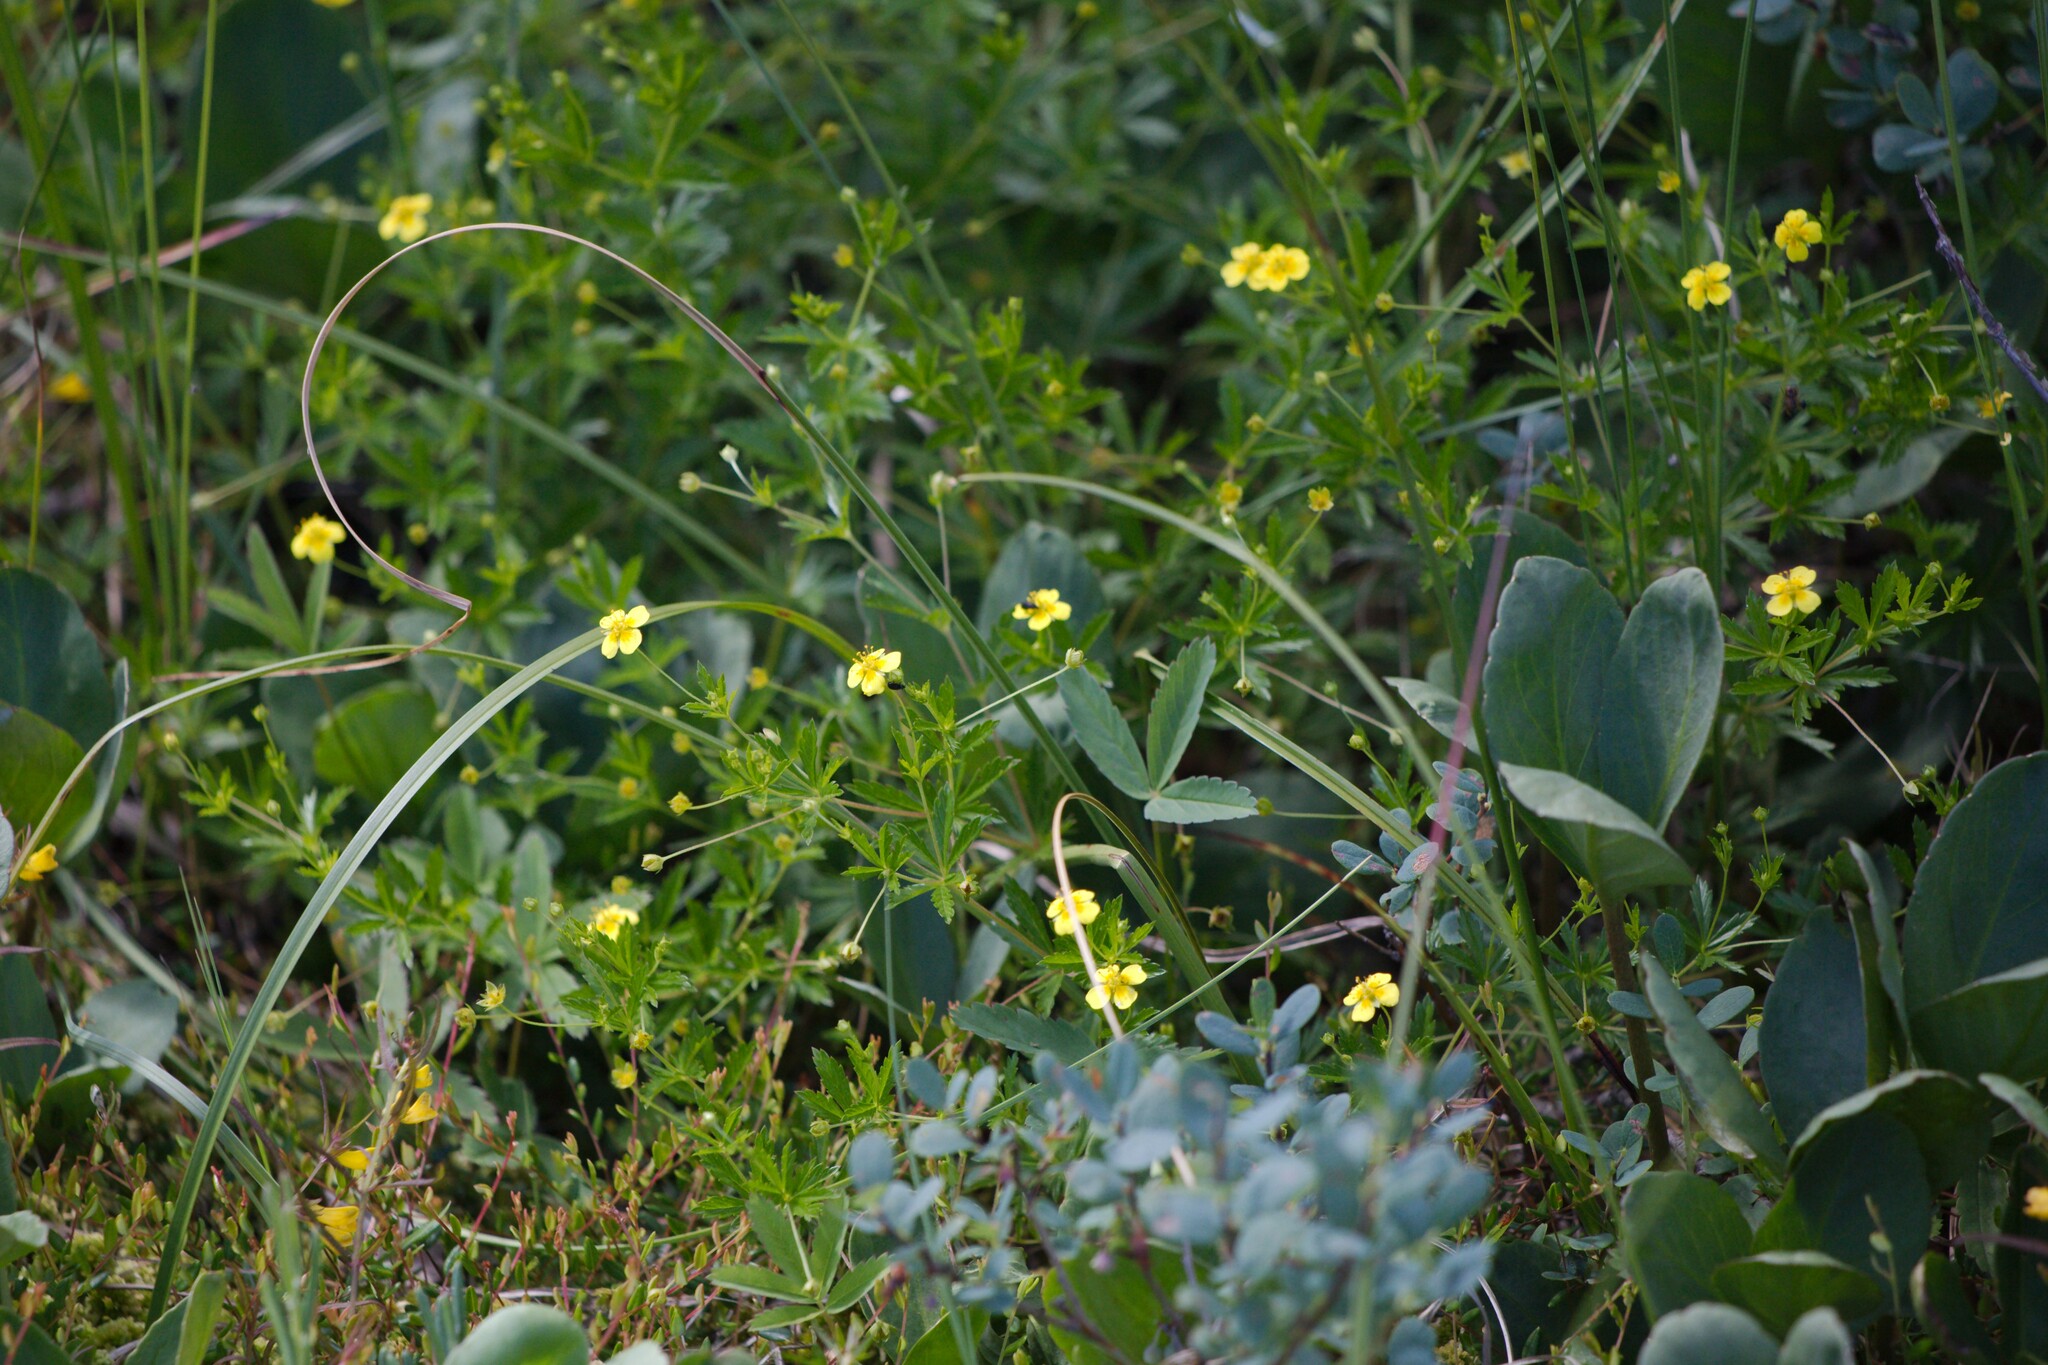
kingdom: Plantae
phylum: Tracheophyta
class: Magnoliopsida
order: Rosales
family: Rosaceae
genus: Potentilla
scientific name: Potentilla erecta
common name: Tormentil
